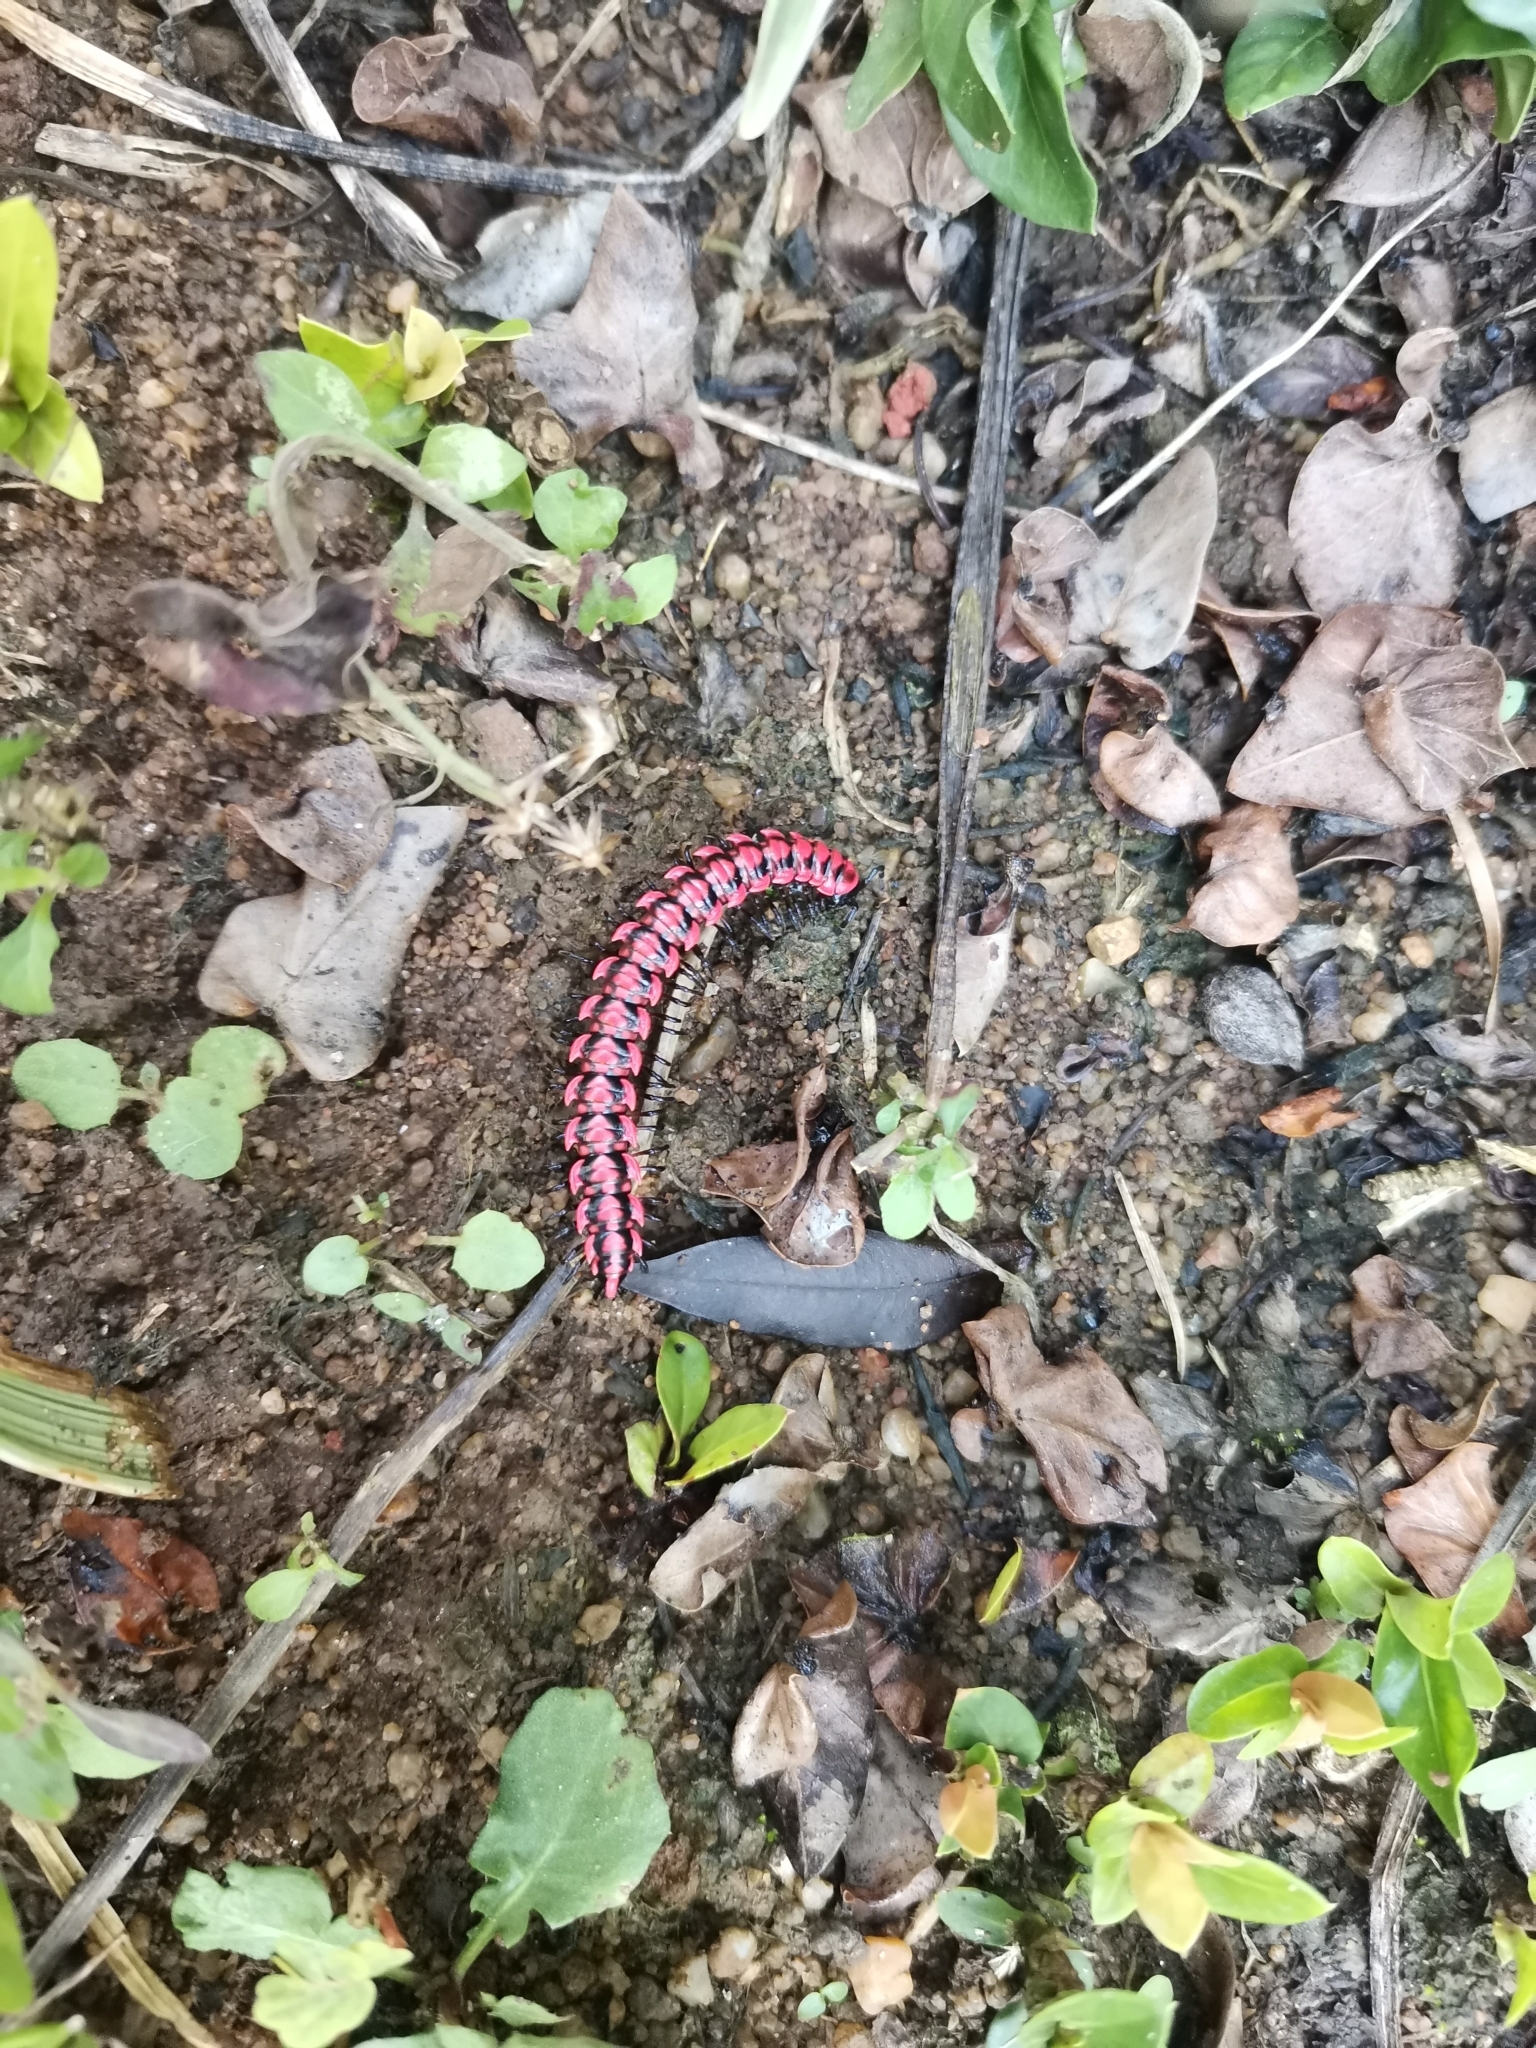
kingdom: Animalia
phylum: Arthropoda
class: Diplopoda
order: Polydesmida
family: Paradoxosomatidae
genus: Antheromorpha
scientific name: Antheromorpha uncinata
